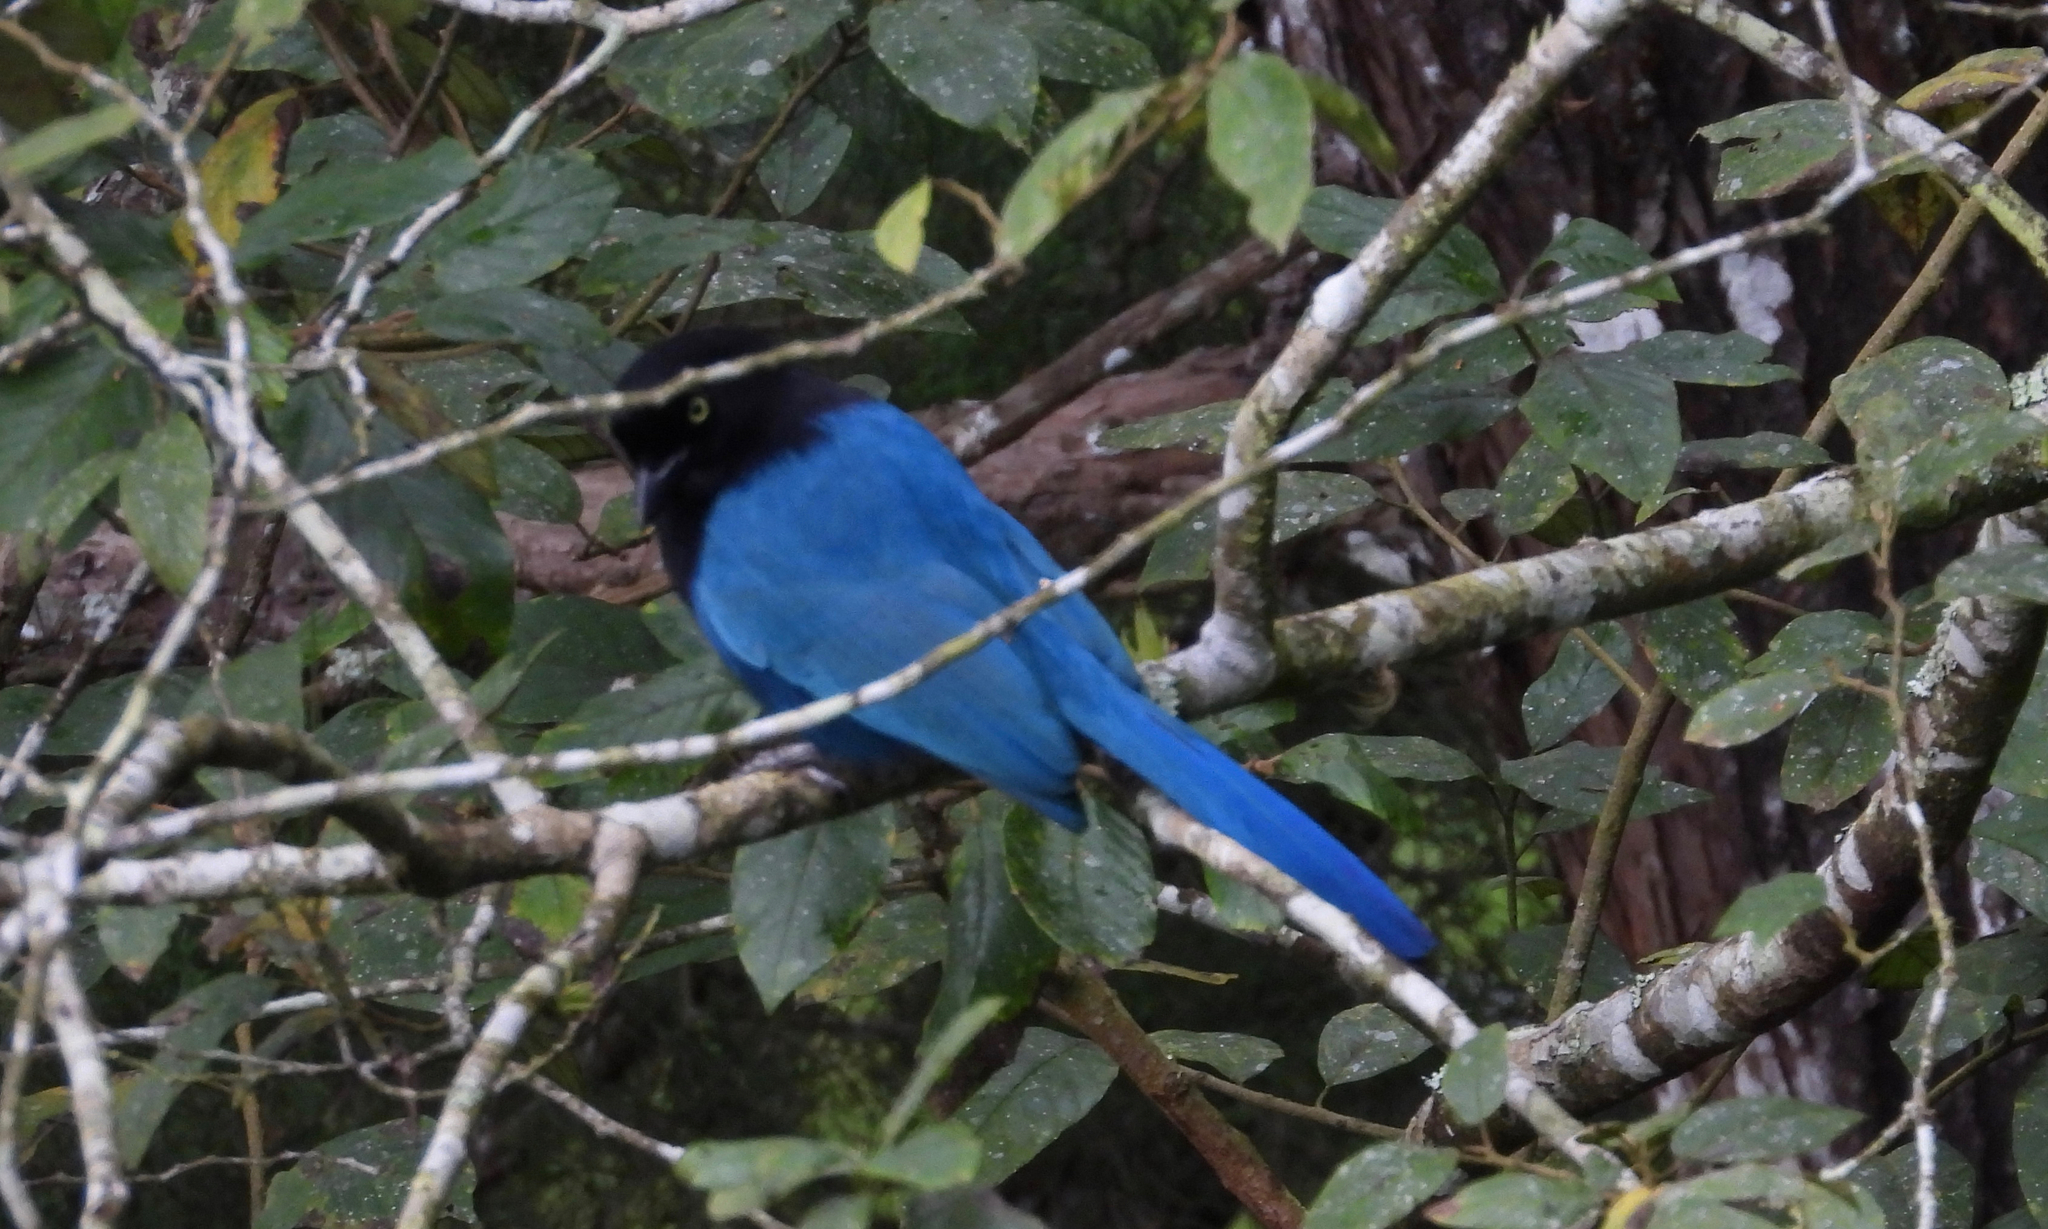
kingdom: Animalia
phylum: Chordata
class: Aves
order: Passeriformes
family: Corvidae
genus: Cyanocorax
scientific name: Cyanocorax melanocyaneus
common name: Bushy-crested jay
